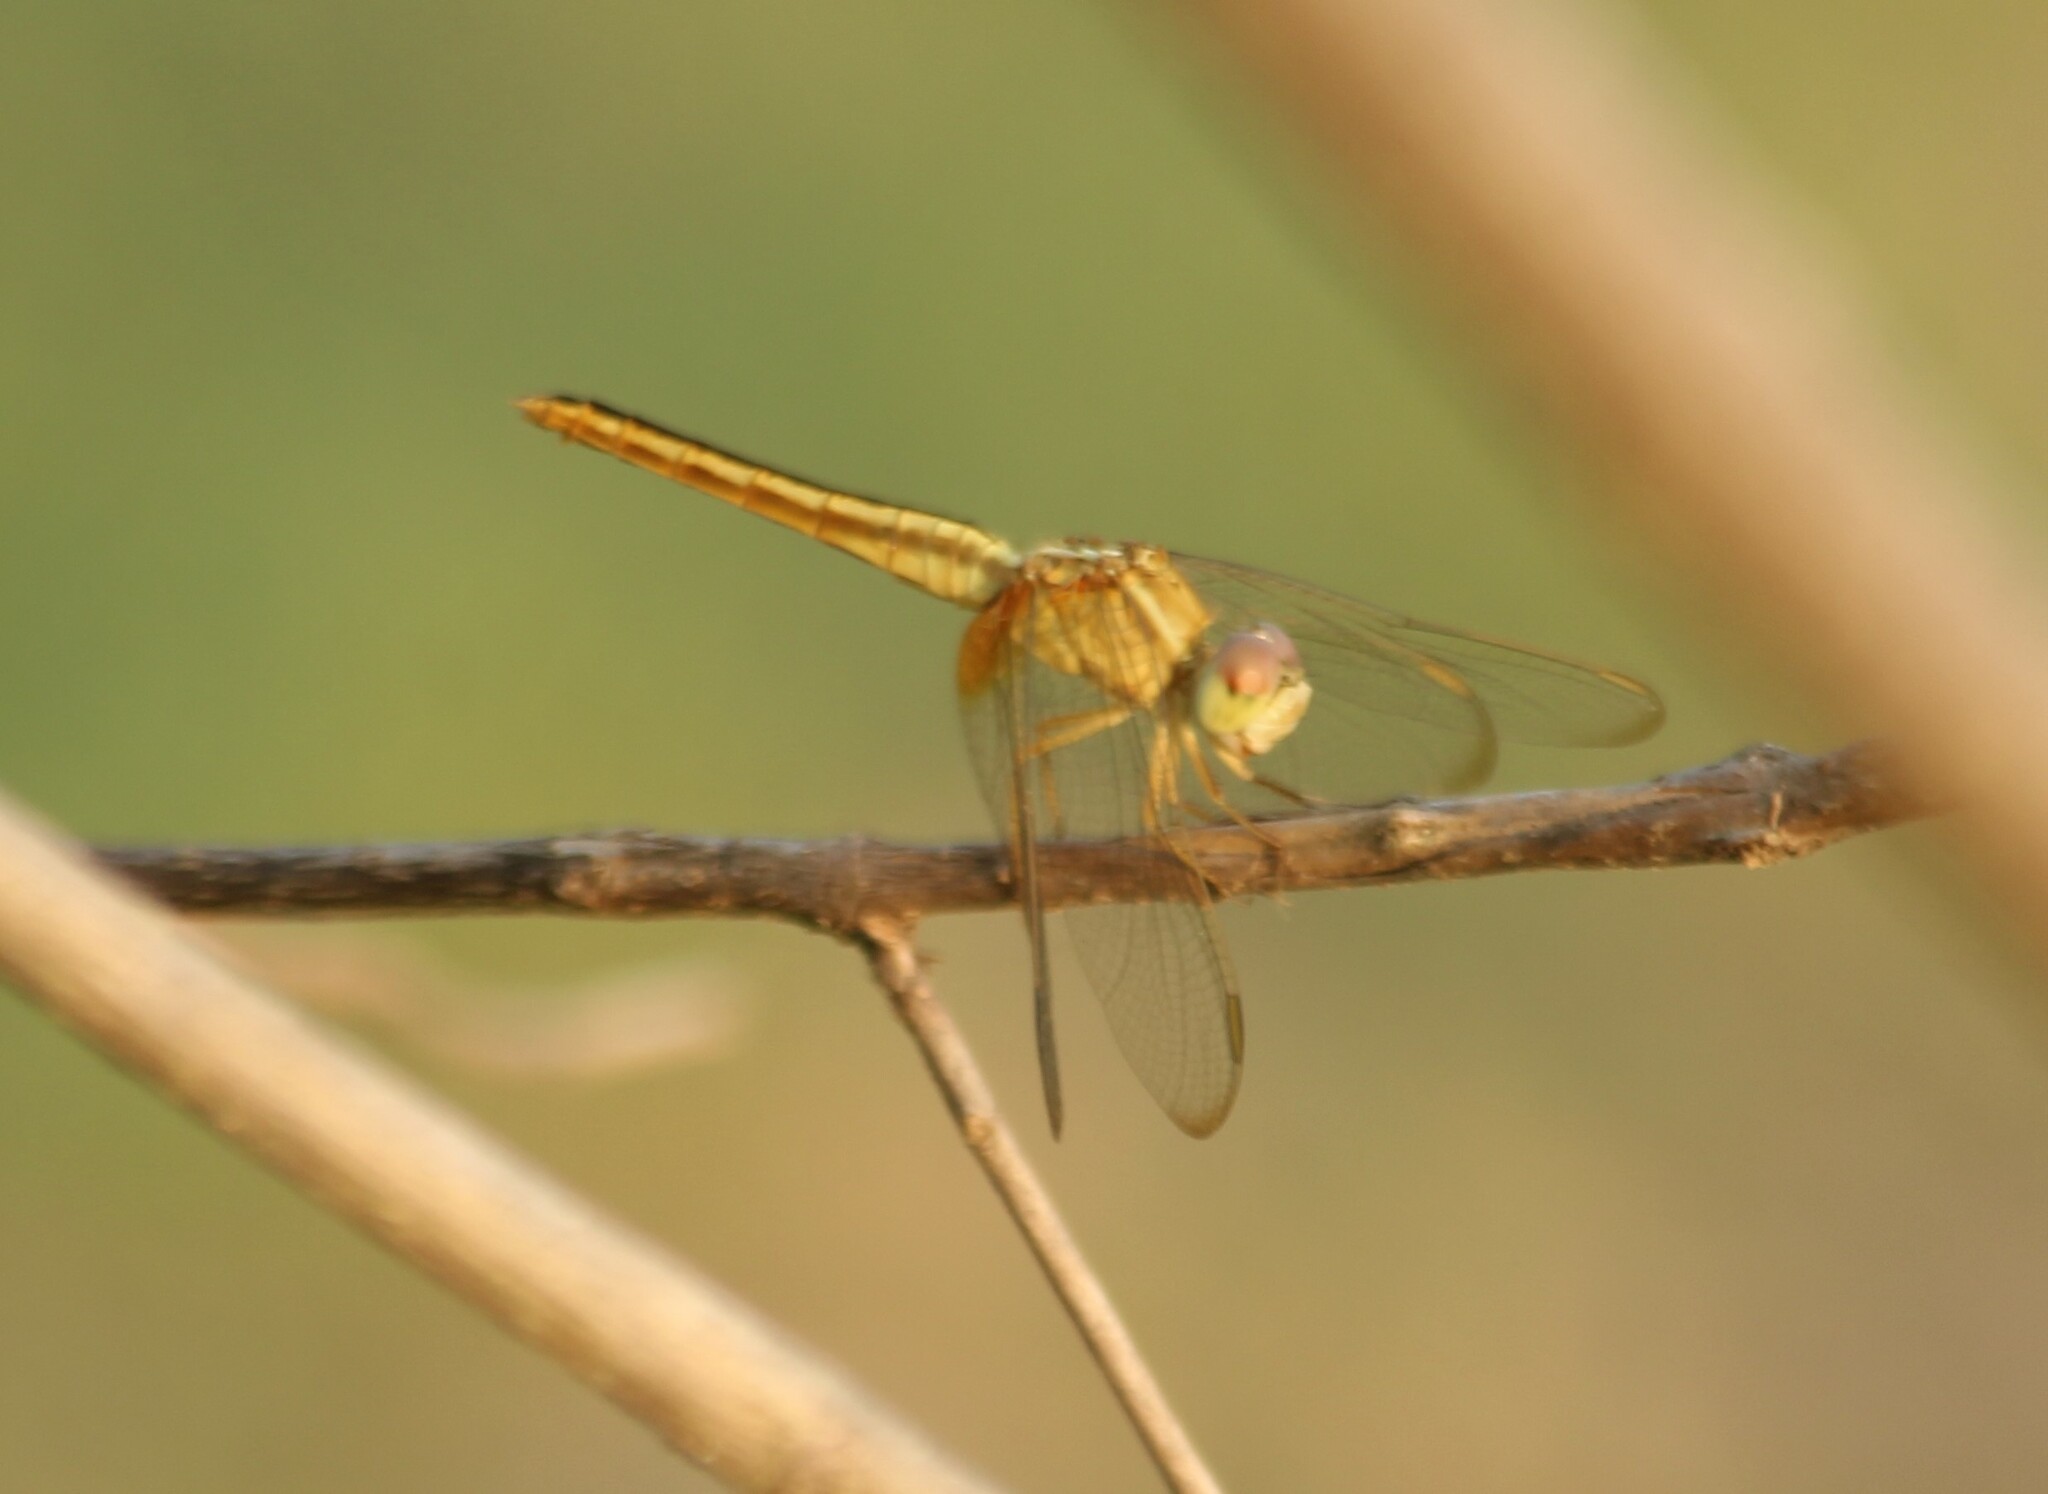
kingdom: Animalia
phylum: Arthropoda
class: Insecta
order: Odonata
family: Libellulidae
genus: Crocothemis
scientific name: Crocothemis servilia
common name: Scarlet skimmer
